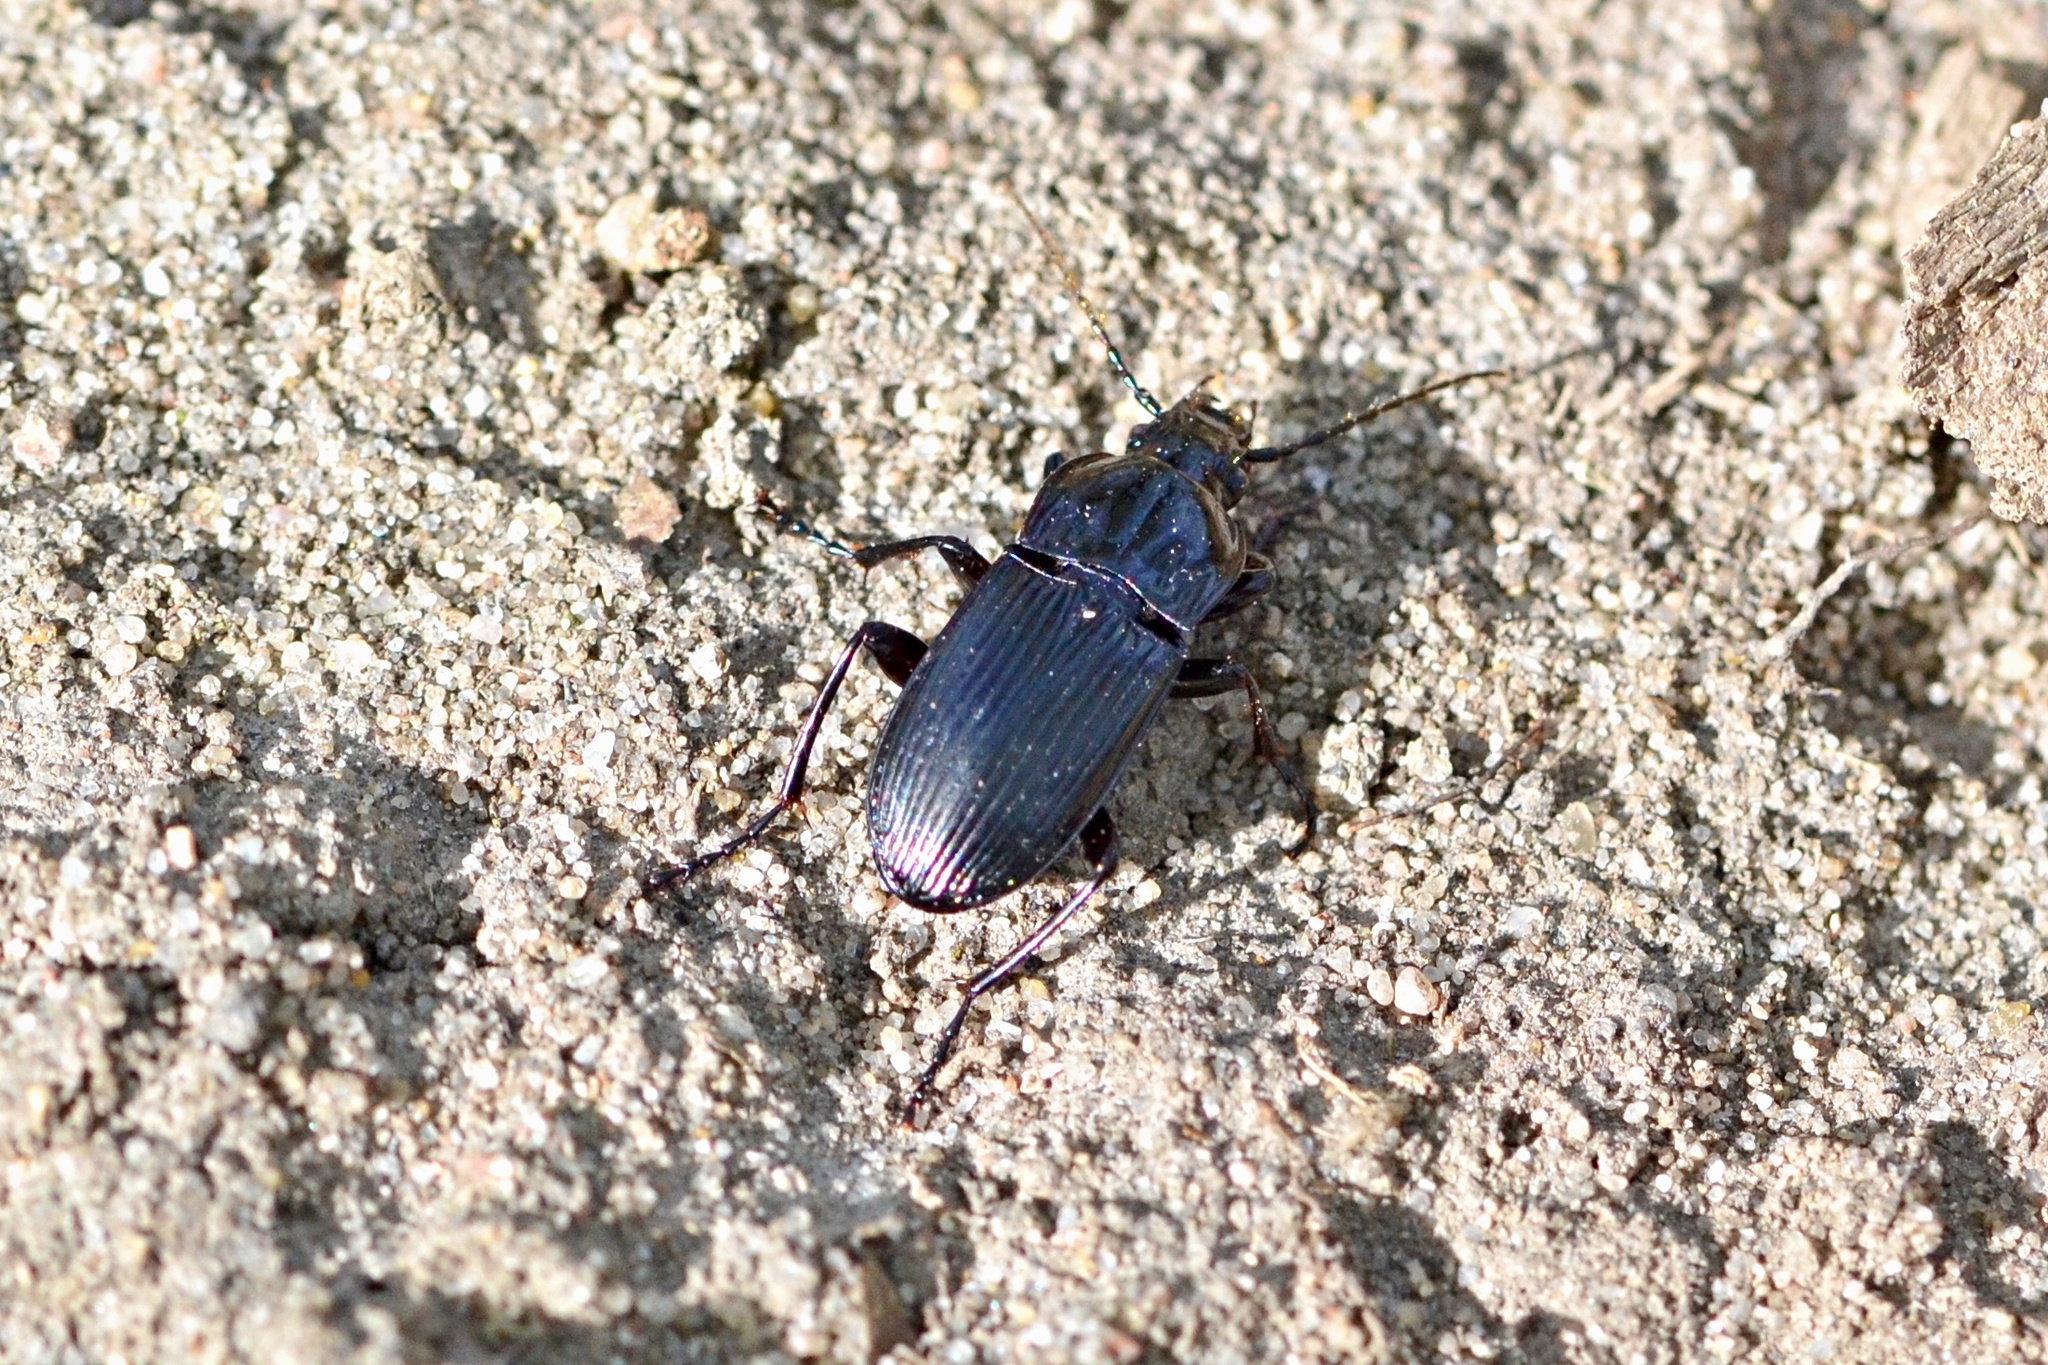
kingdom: Animalia
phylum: Arthropoda
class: Insecta
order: Coleoptera
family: Carabidae
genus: Abax
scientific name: Abax parallelepipedus
